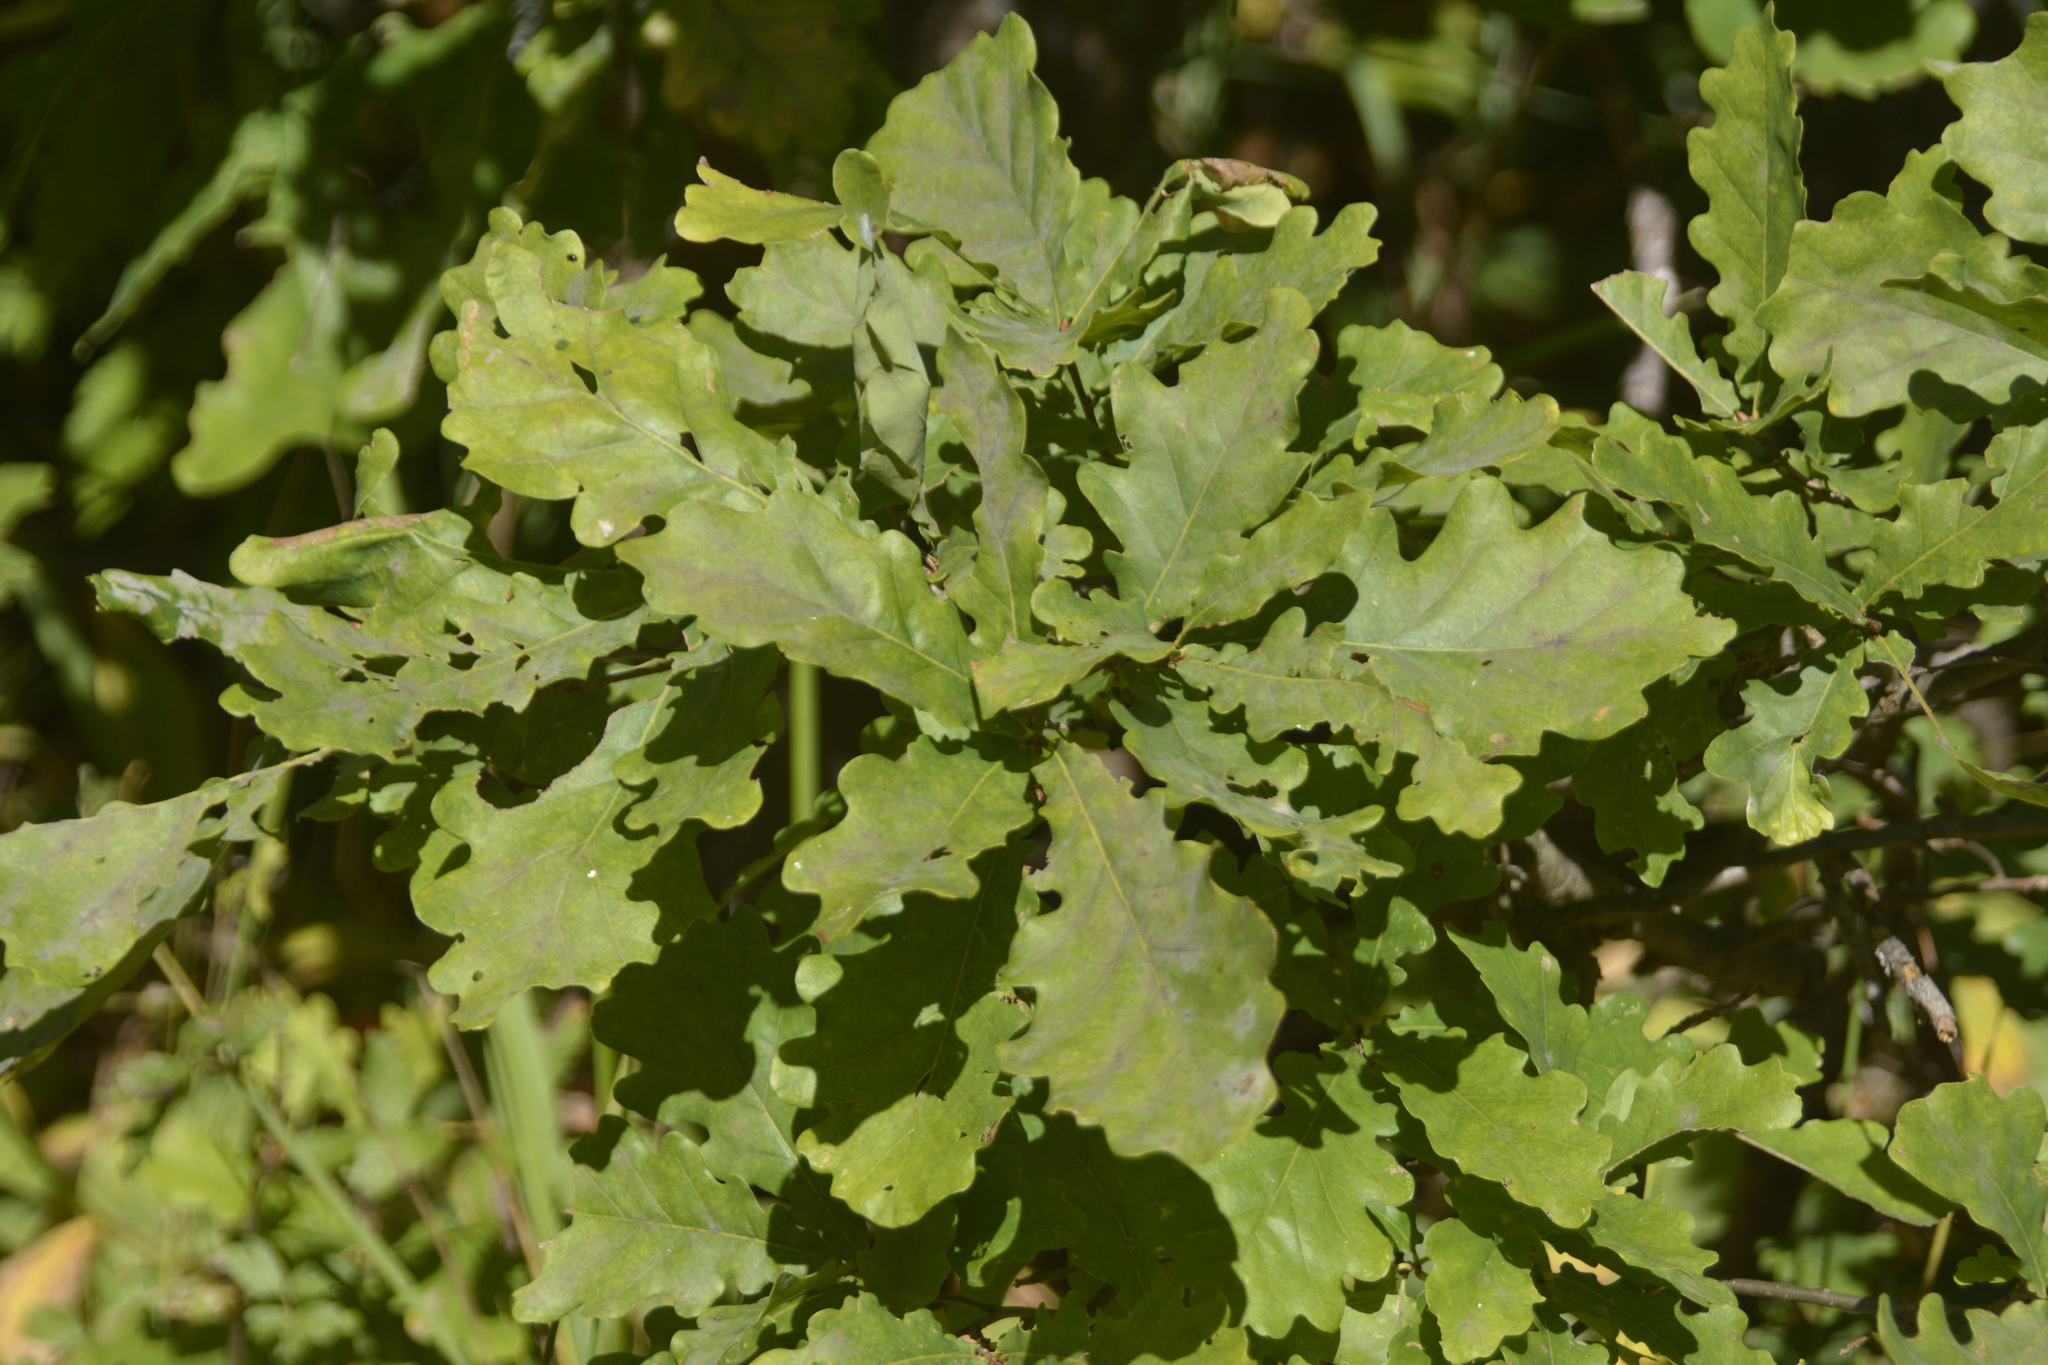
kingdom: Plantae
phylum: Tracheophyta
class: Magnoliopsida
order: Fagales
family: Fagaceae
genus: Quercus
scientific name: Quercus robur
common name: Pedunculate oak
